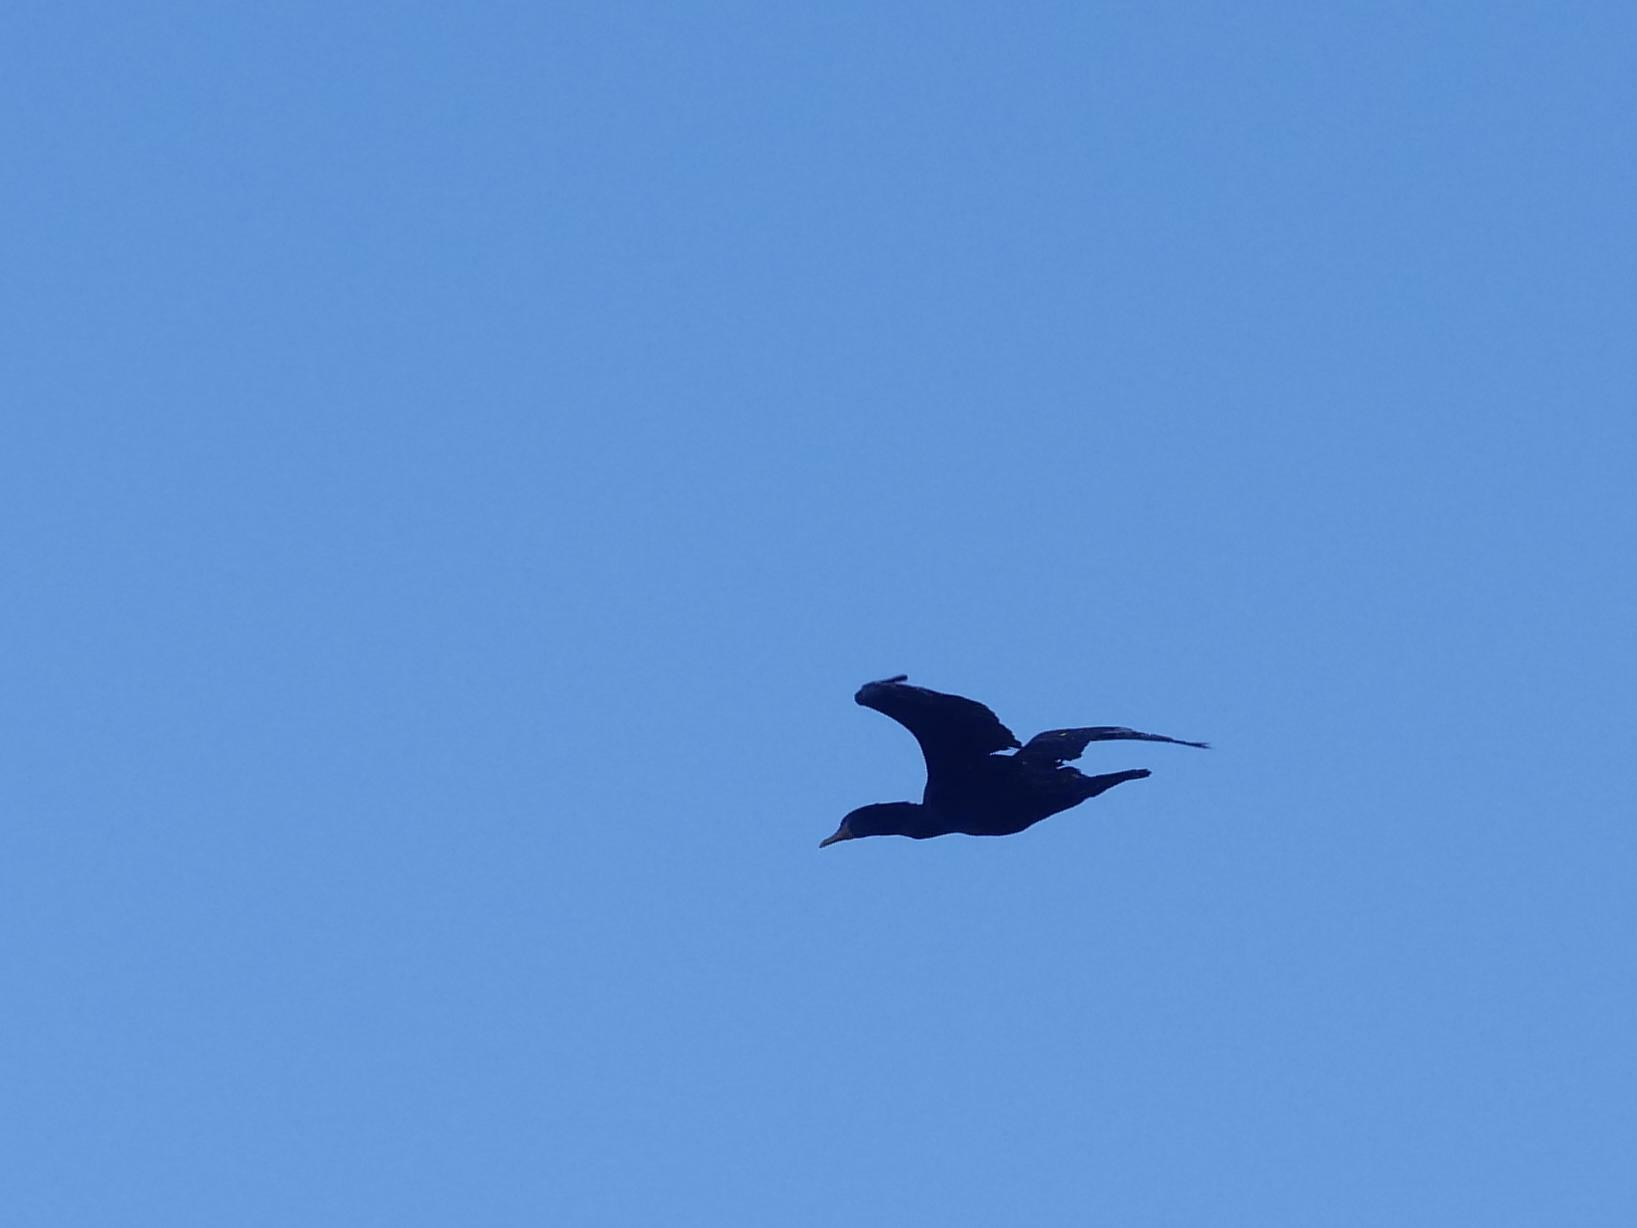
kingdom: Animalia
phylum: Chordata
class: Aves
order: Suliformes
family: Phalacrocoracidae
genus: Phalacrocorax
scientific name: Phalacrocorax auritus
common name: Double-crested cormorant
